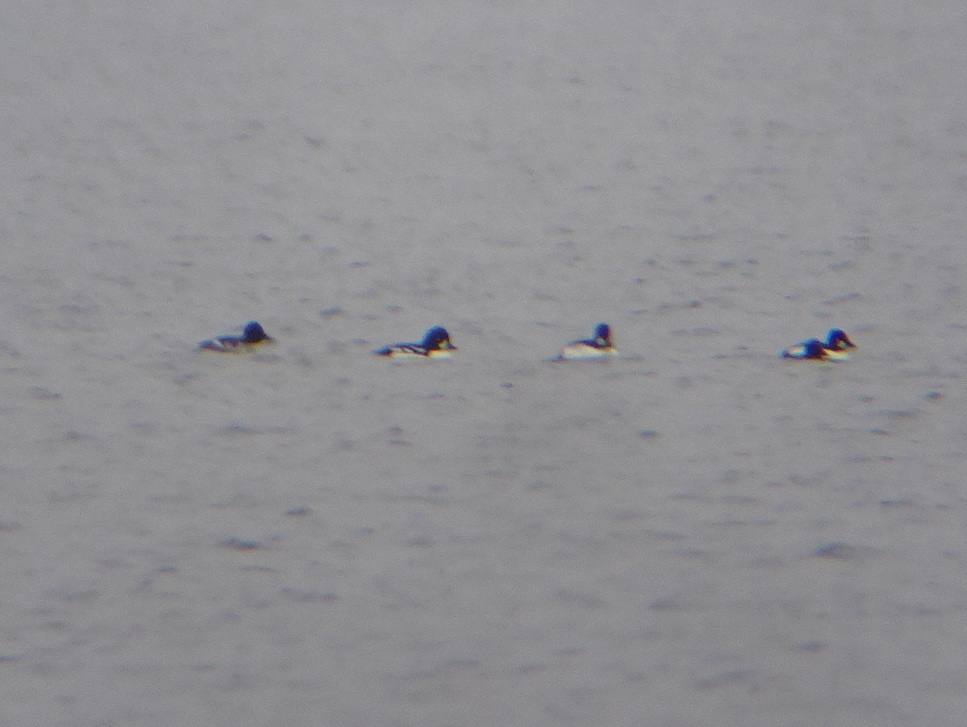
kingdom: Animalia
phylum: Chordata
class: Aves
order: Anseriformes
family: Anatidae
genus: Bucephala
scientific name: Bucephala islandica
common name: Barrow's goldeneye
